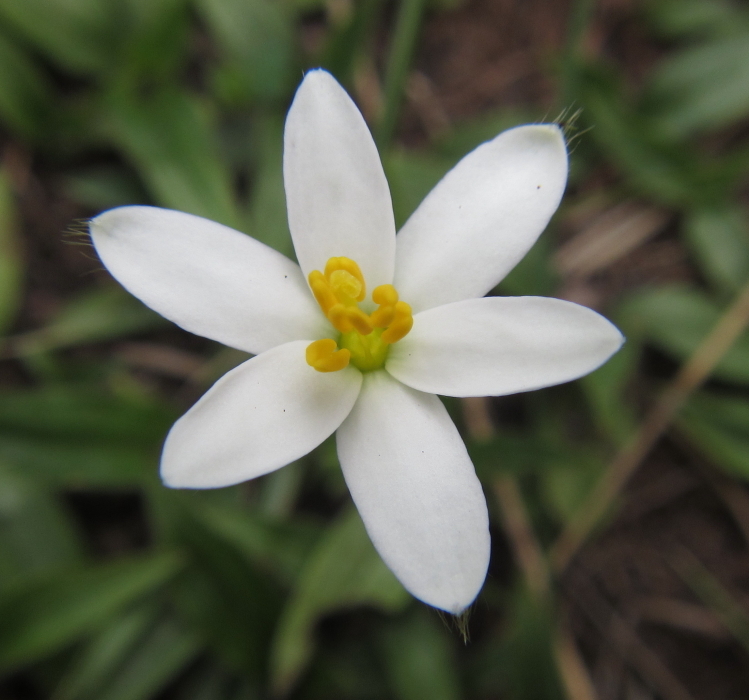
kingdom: Plantae
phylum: Tracheophyta
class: Liliopsida
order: Asparagales
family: Hypoxidaceae
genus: Hypoxis
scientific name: Hypoxis parvula
